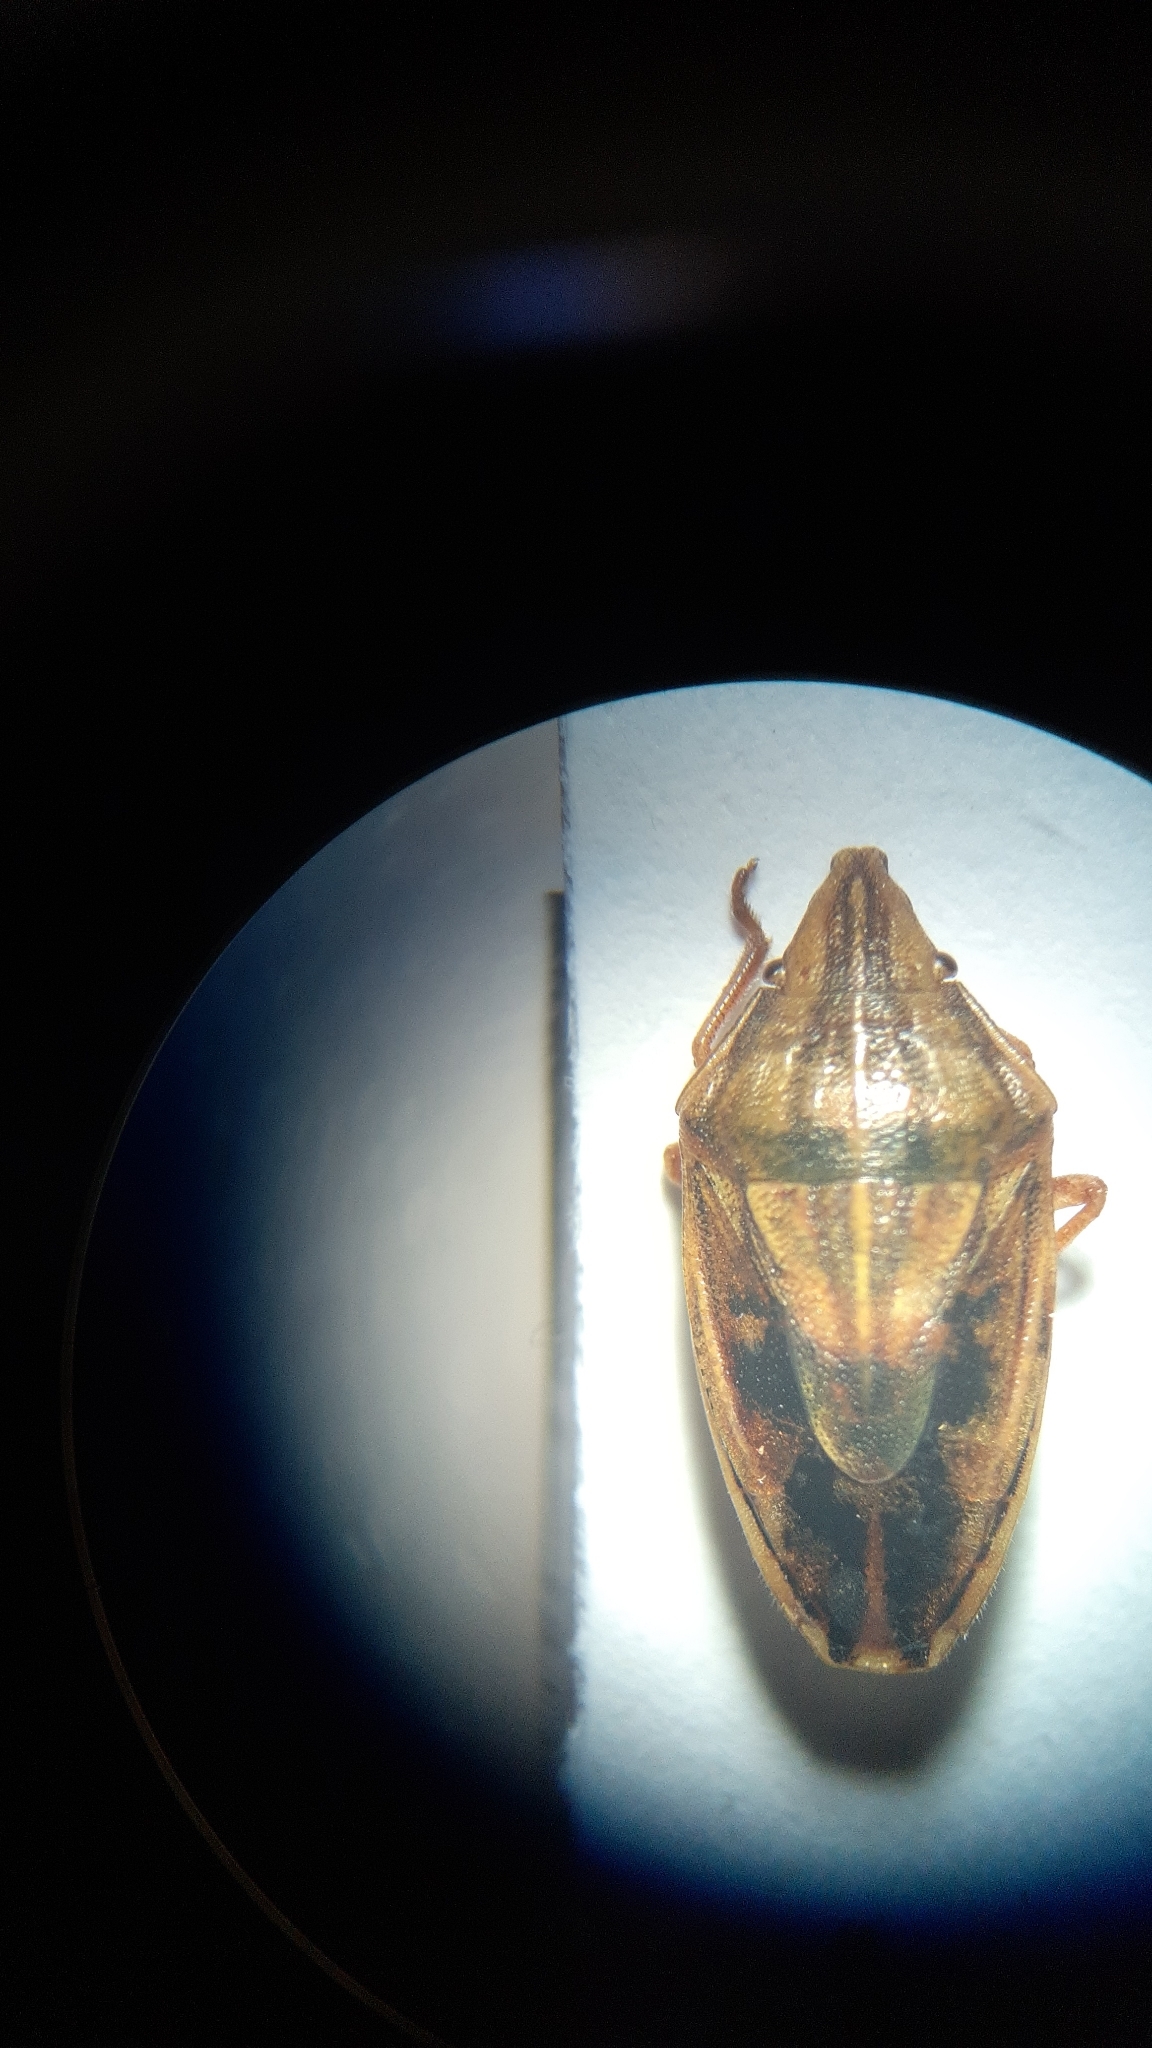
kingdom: Animalia
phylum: Arthropoda
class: Insecta
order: Hemiptera
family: Pentatomidae
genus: Aelia
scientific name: Aelia acuminata
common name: Bishop's mitre
